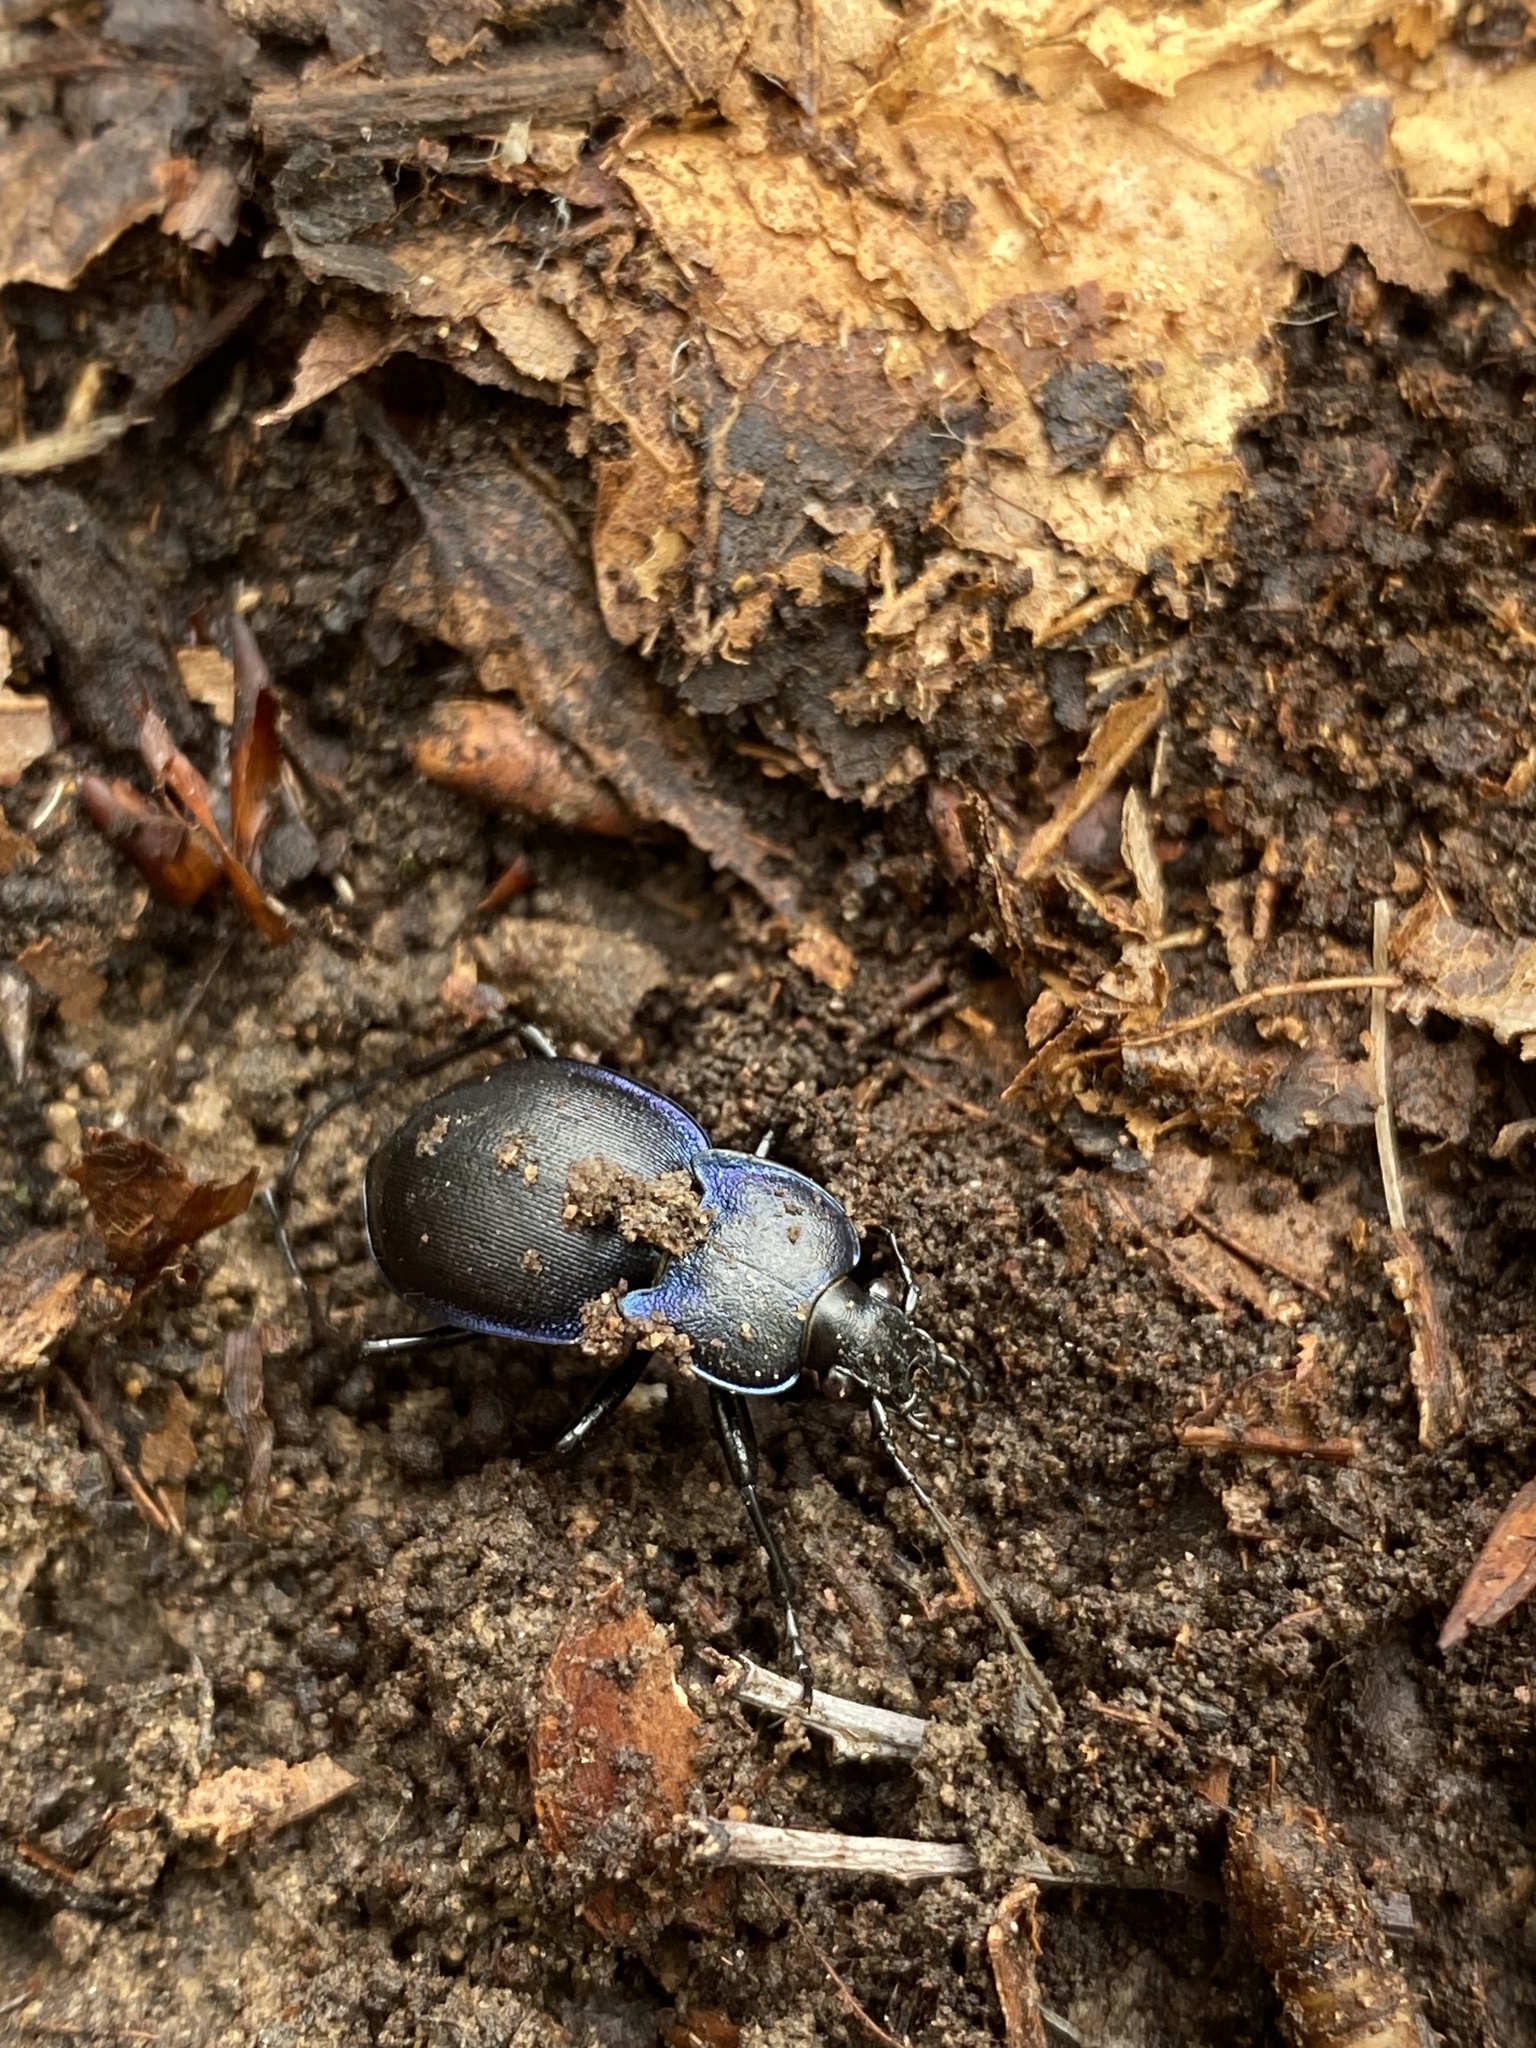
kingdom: Animalia
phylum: Arthropoda
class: Insecta
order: Coleoptera
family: Carabidae
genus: Carabus
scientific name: Carabus convexus
